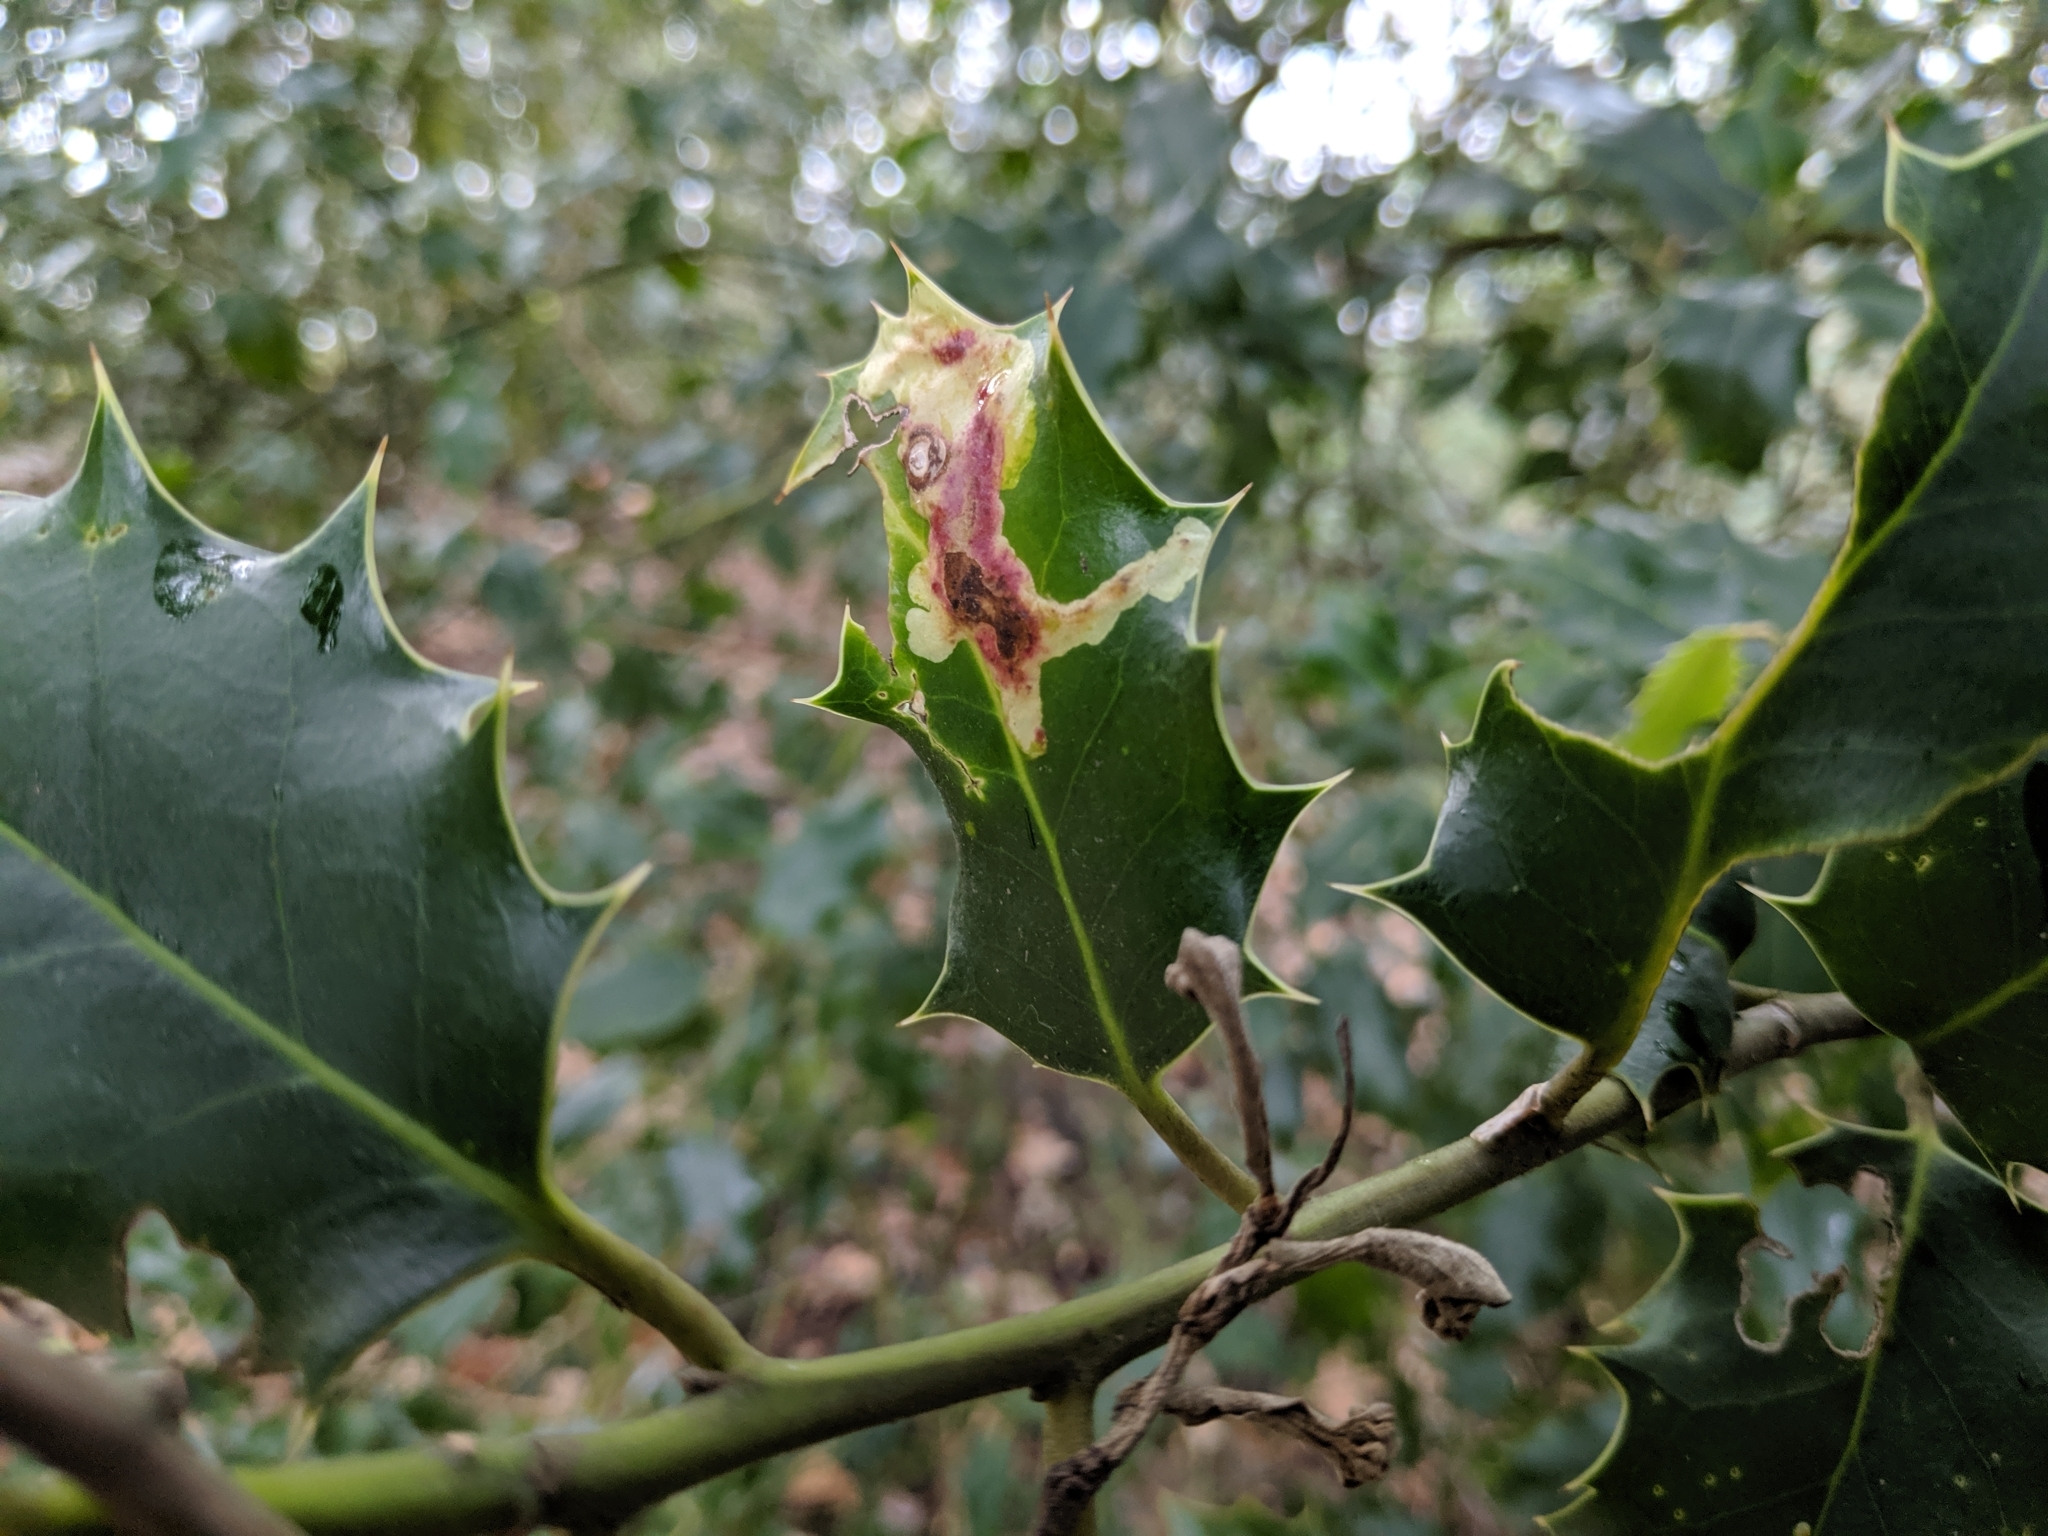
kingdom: Animalia
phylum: Arthropoda
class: Insecta
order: Diptera
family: Agromyzidae
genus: Phytomyza
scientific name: Phytomyza ilicis
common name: Holly leafminer
